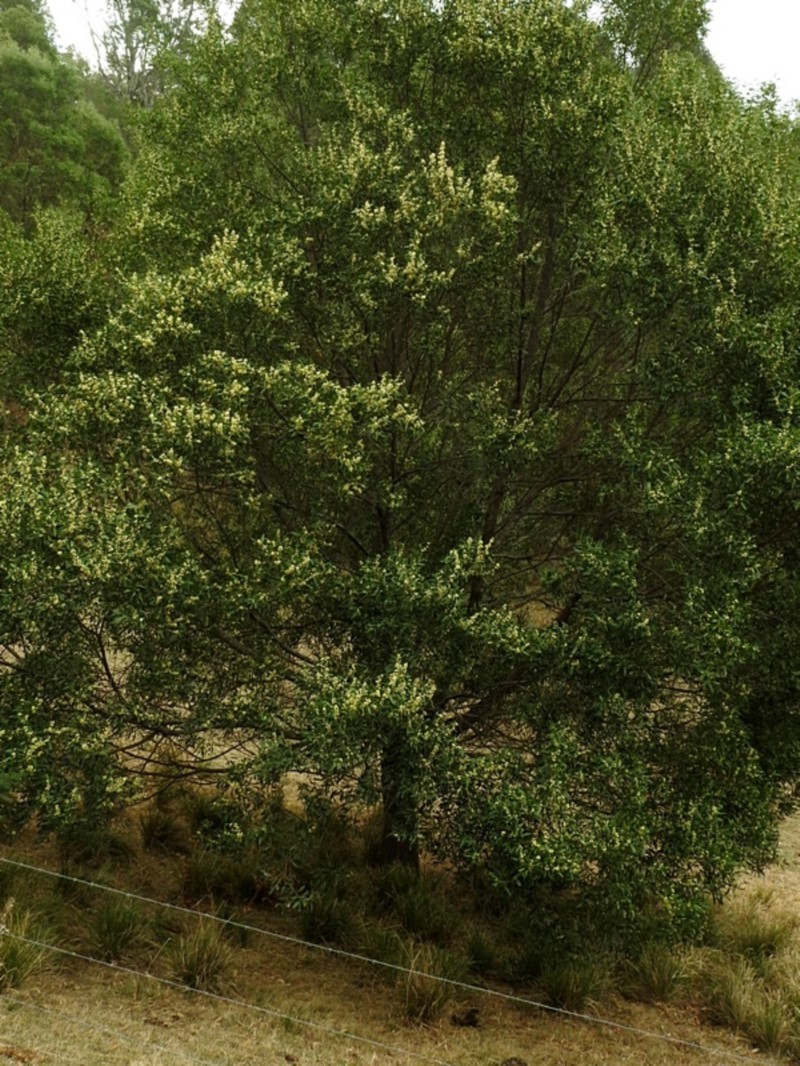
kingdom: Plantae
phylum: Tracheophyta
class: Magnoliopsida
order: Fabales
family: Fabaceae
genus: Acacia
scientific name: Acacia melanoxylon
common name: Blackwood
